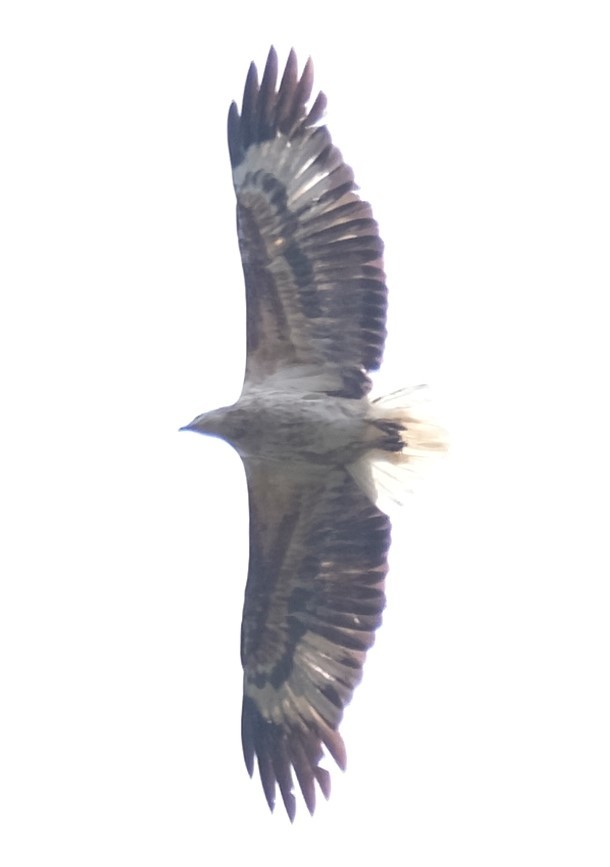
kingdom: Animalia
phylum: Chordata
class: Aves
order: Accipitriformes
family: Accipitridae
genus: Haliaeetus
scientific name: Haliaeetus leucogaster
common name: White-bellied sea eagle
